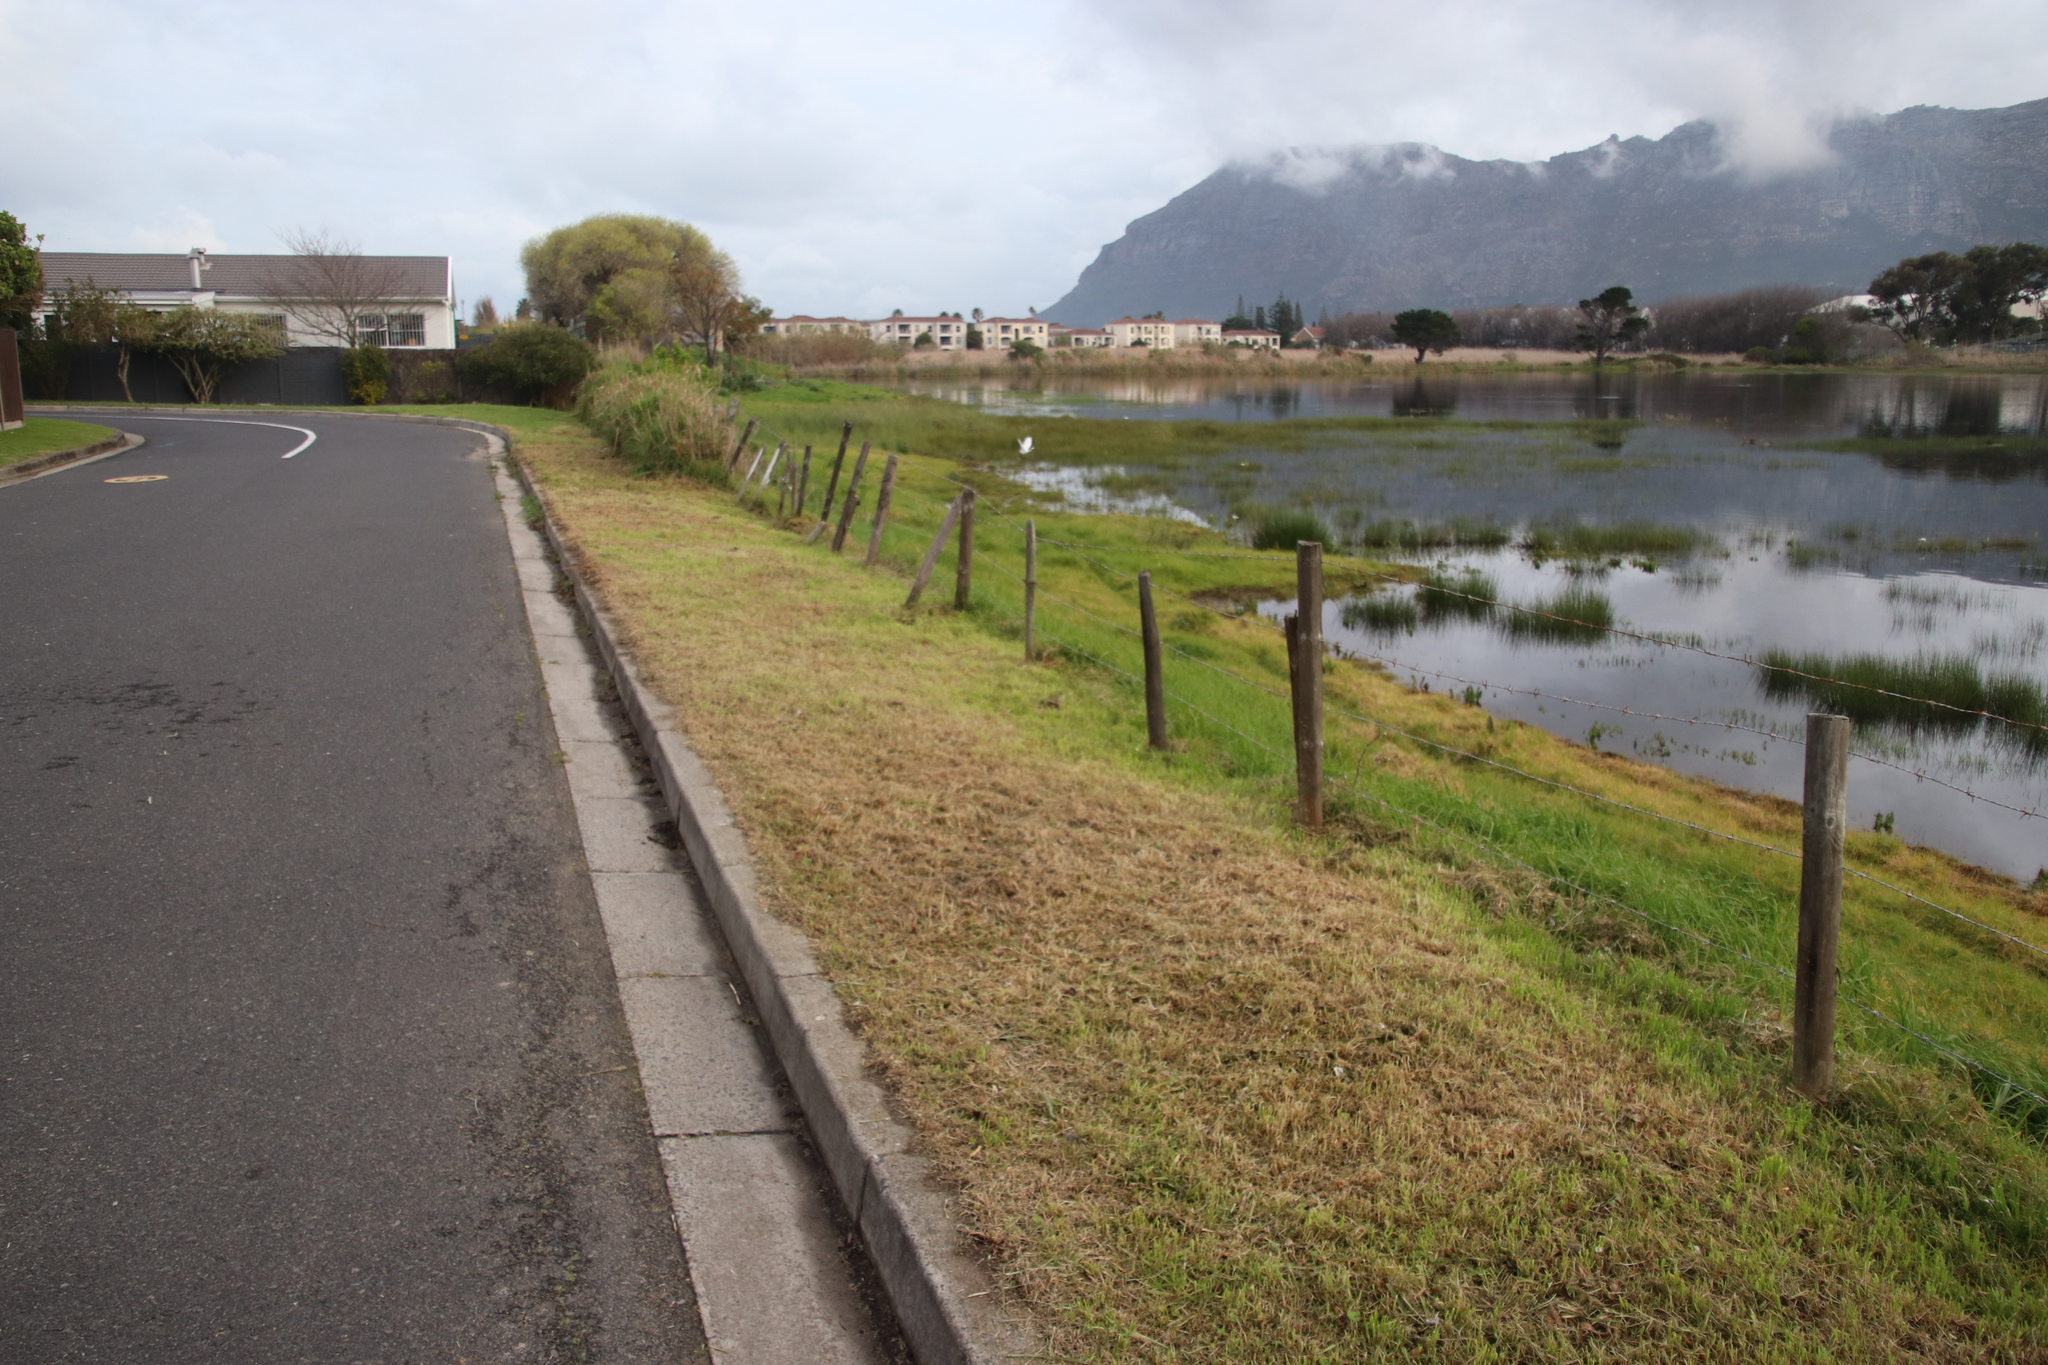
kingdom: Plantae
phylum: Tracheophyta
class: Liliopsida
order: Poales
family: Poaceae
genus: Cenchrus
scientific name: Cenchrus clandestinus
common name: Kikuyugrass
